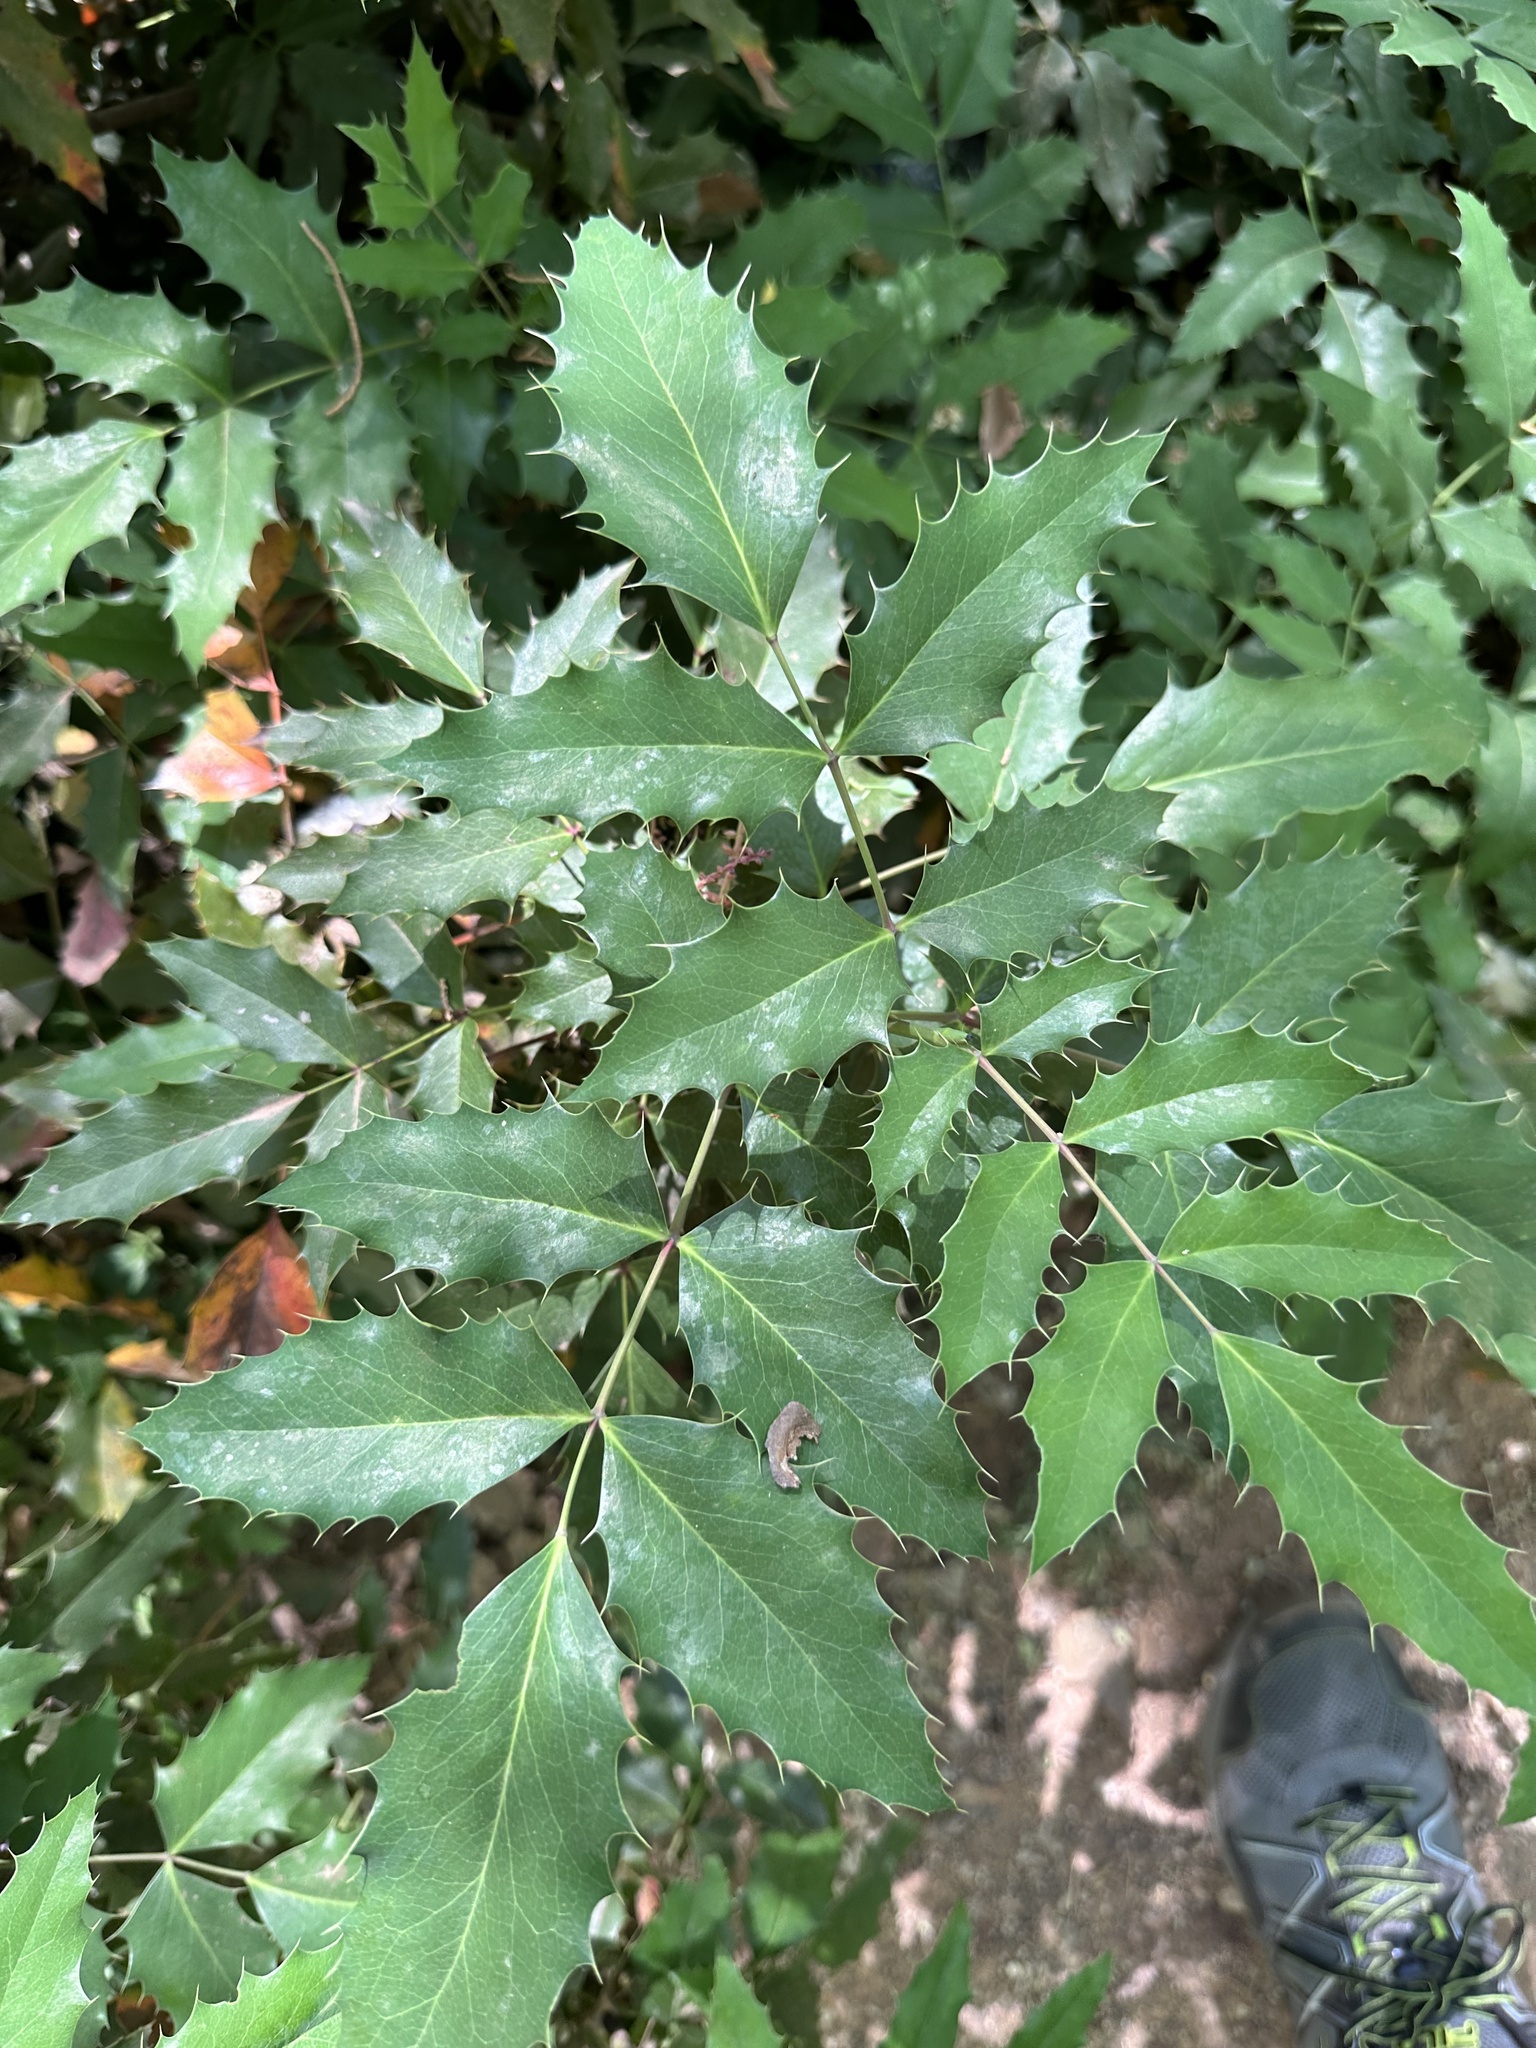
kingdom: Plantae
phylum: Tracheophyta
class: Magnoliopsida
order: Ranunculales
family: Berberidaceae
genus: Mahonia
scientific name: Mahonia aquifolium
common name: Oregon-grape
